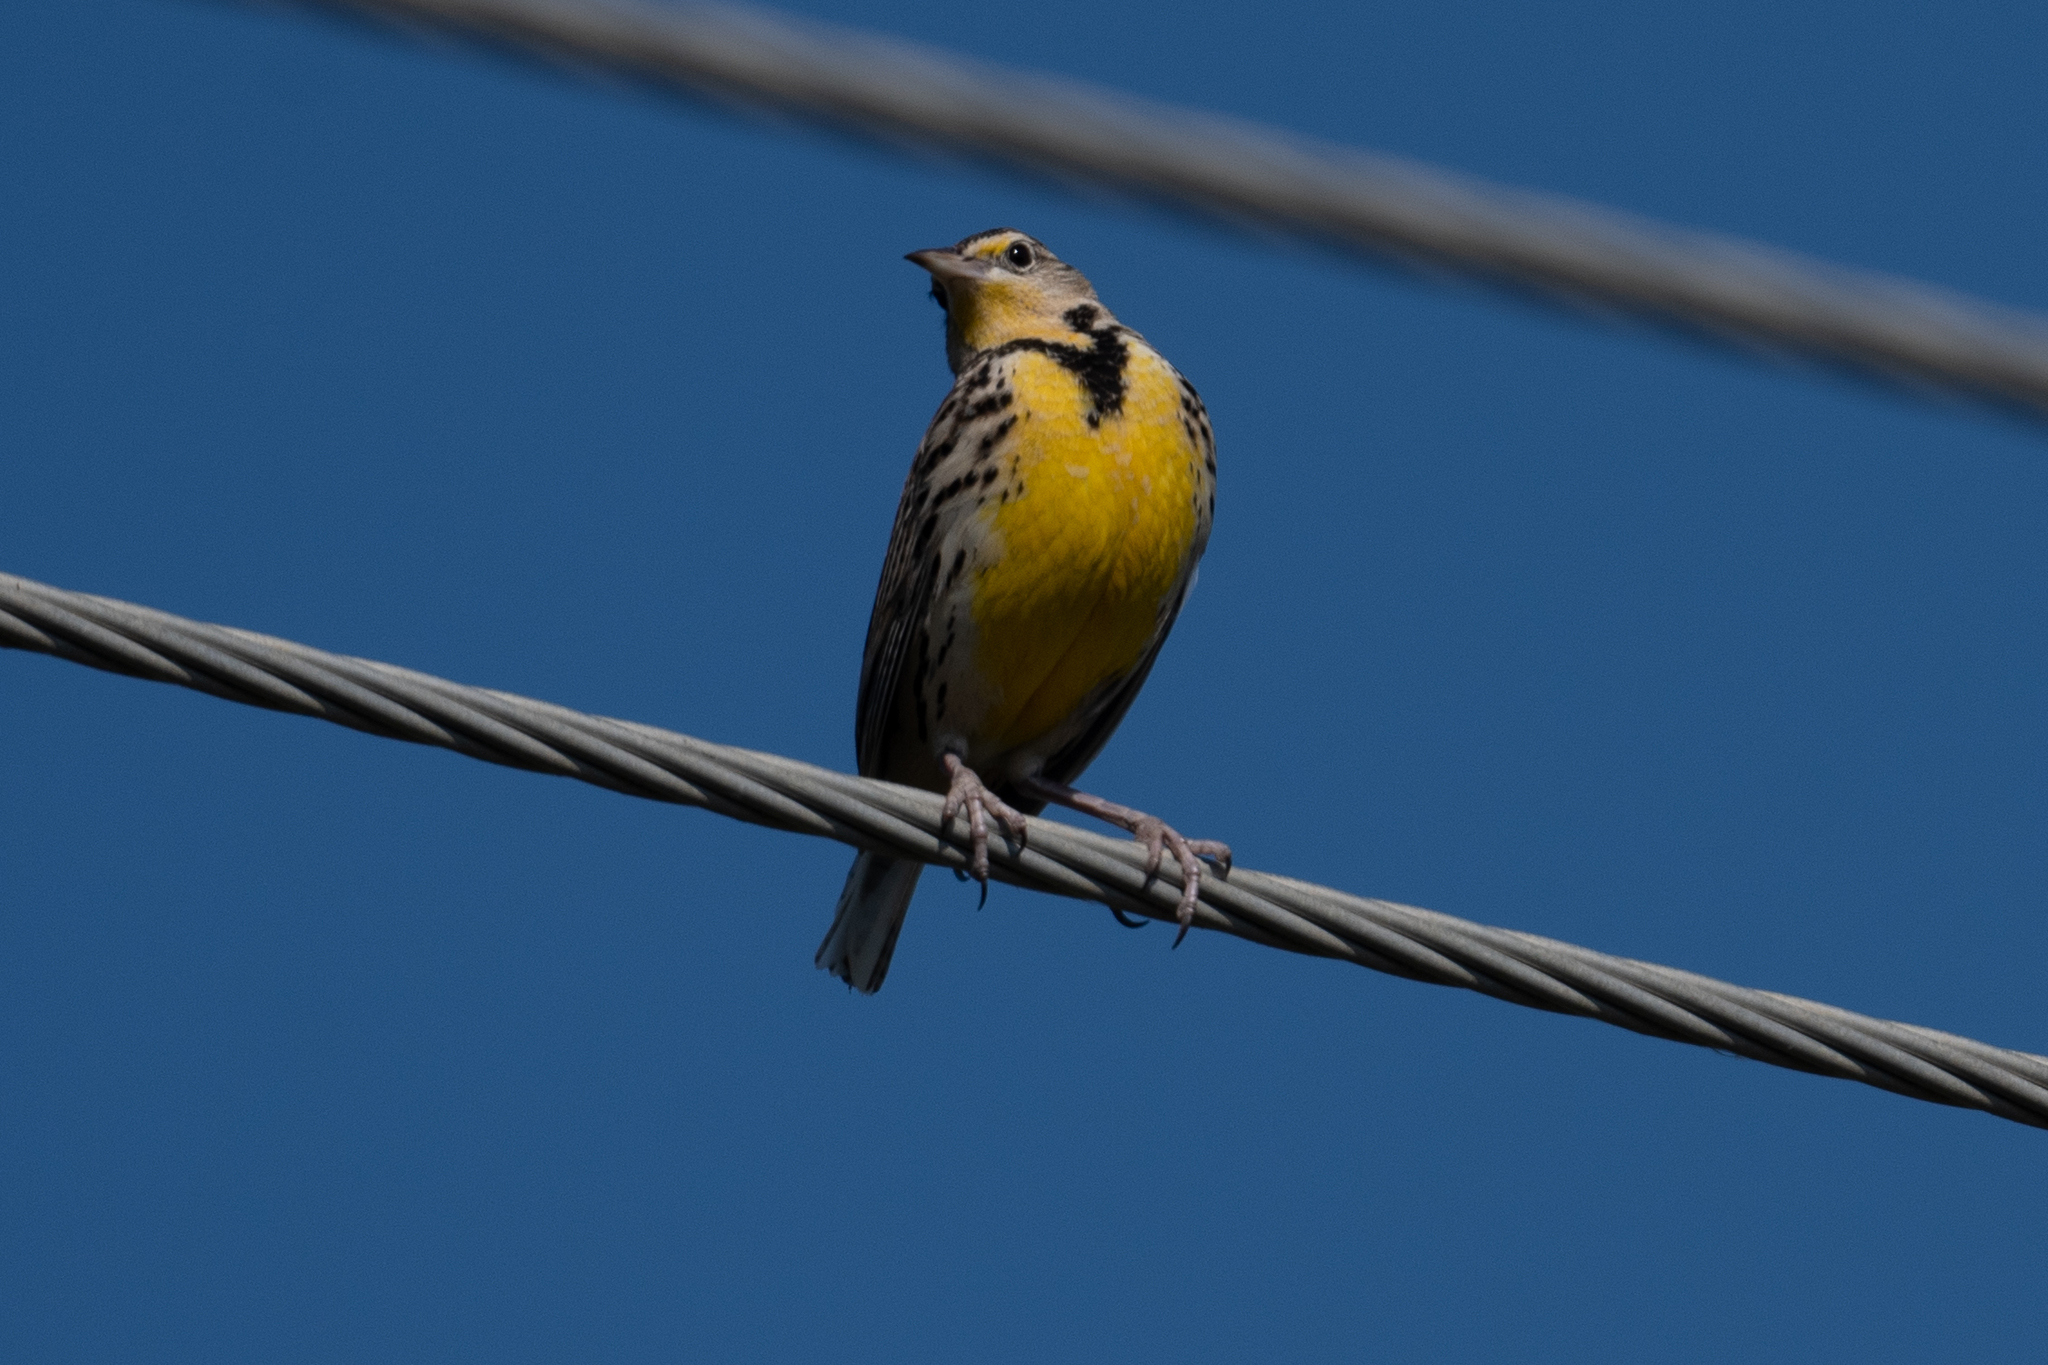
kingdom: Animalia
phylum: Chordata
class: Aves
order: Passeriformes
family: Icteridae
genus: Sturnella
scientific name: Sturnella neglecta
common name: Western meadowlark
